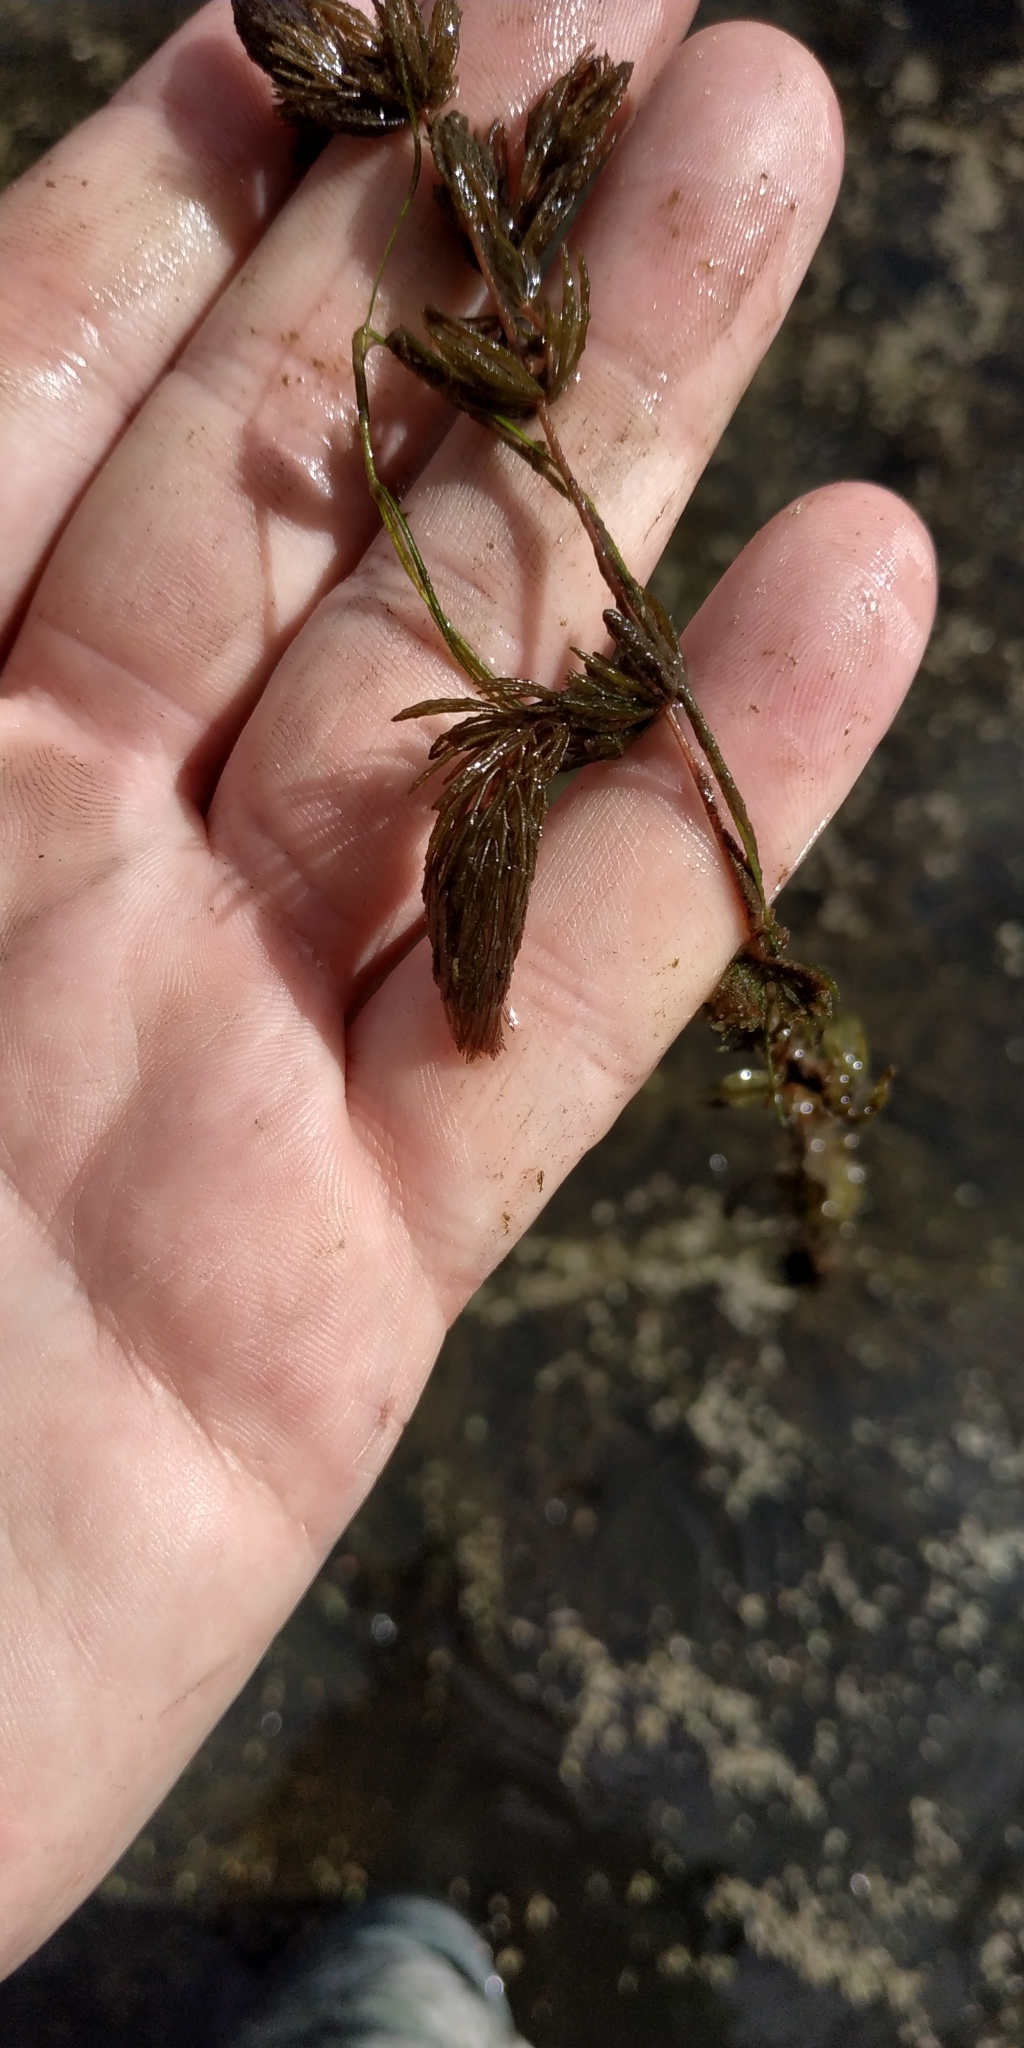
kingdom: Plantae
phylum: Tracheophyta
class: Magnoliopsida
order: Ceratophyllales
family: Ceratophyllaceae
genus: Ceratophyllum
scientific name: Ceratophyllum demersum
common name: Rigid hornwort
